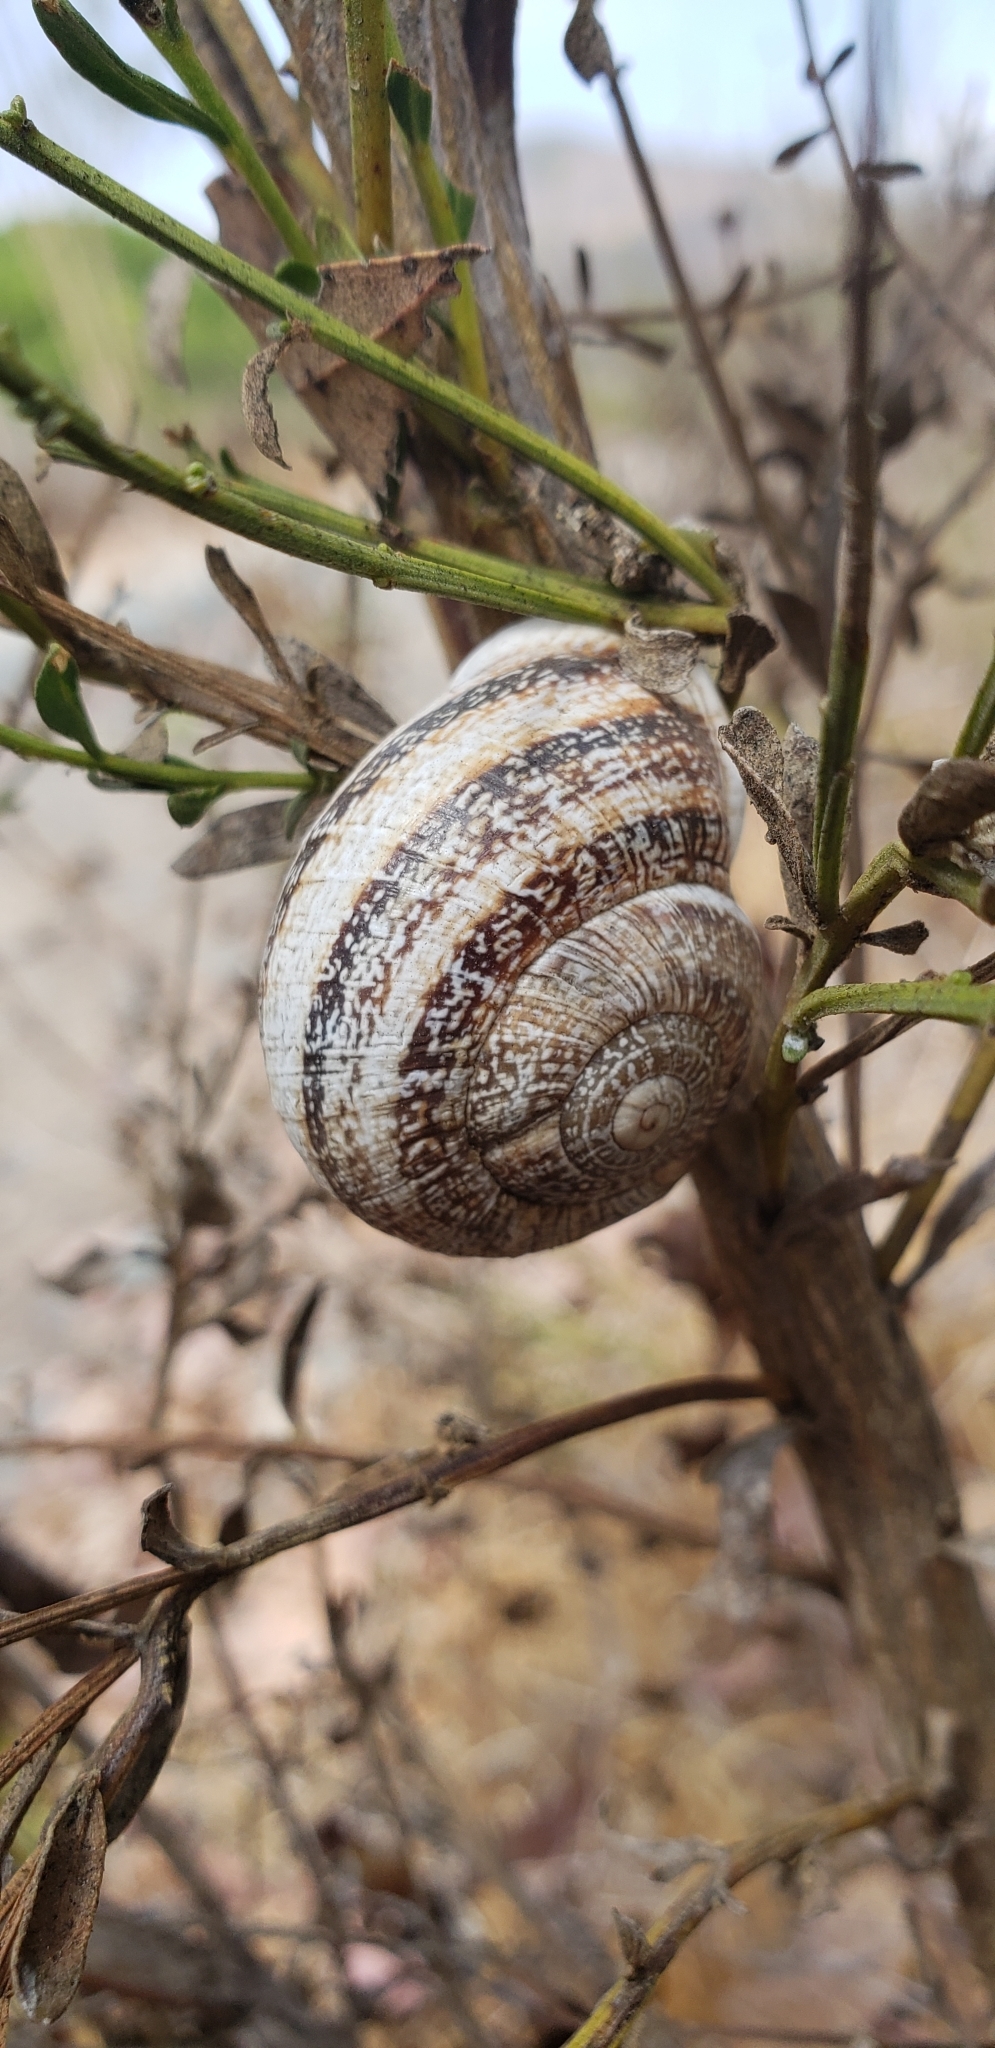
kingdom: Animalia
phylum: Mollusca
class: Gastropoda
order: Stylommatophora
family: Helicidae
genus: Otala
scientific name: Otala lactea
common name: Milk snail
